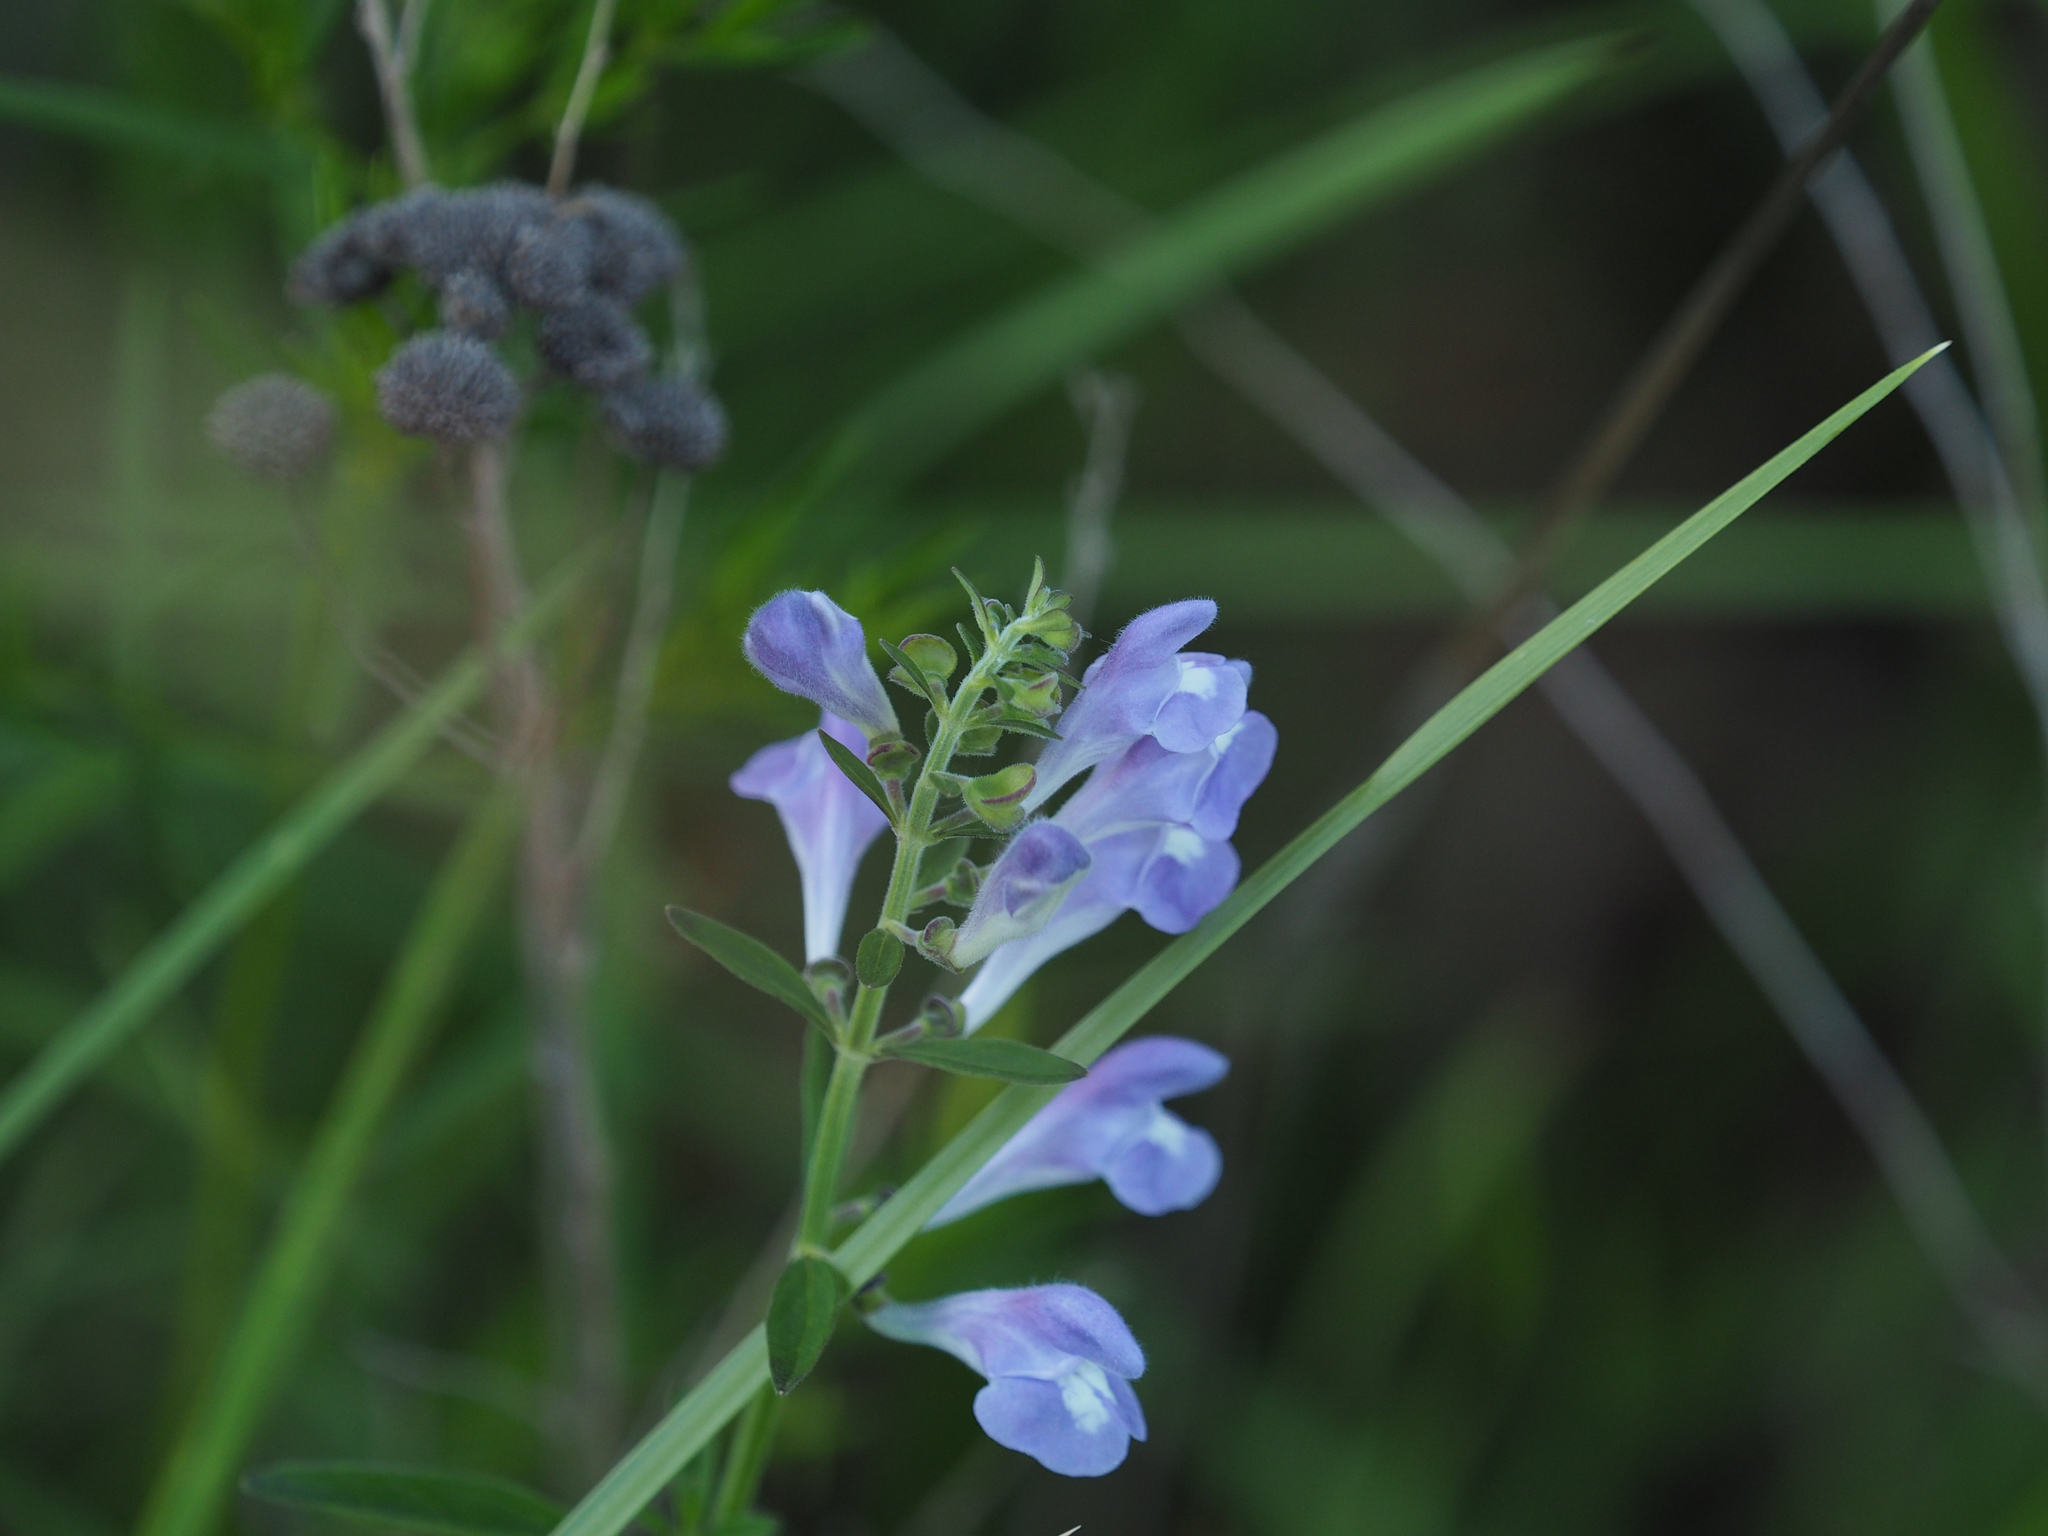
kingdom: Plantae
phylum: Tracheophyta
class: Magnoliopsida
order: Lamiales
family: Lamiaceae
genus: Scutellaria
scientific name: Scutellaria integrifolia
